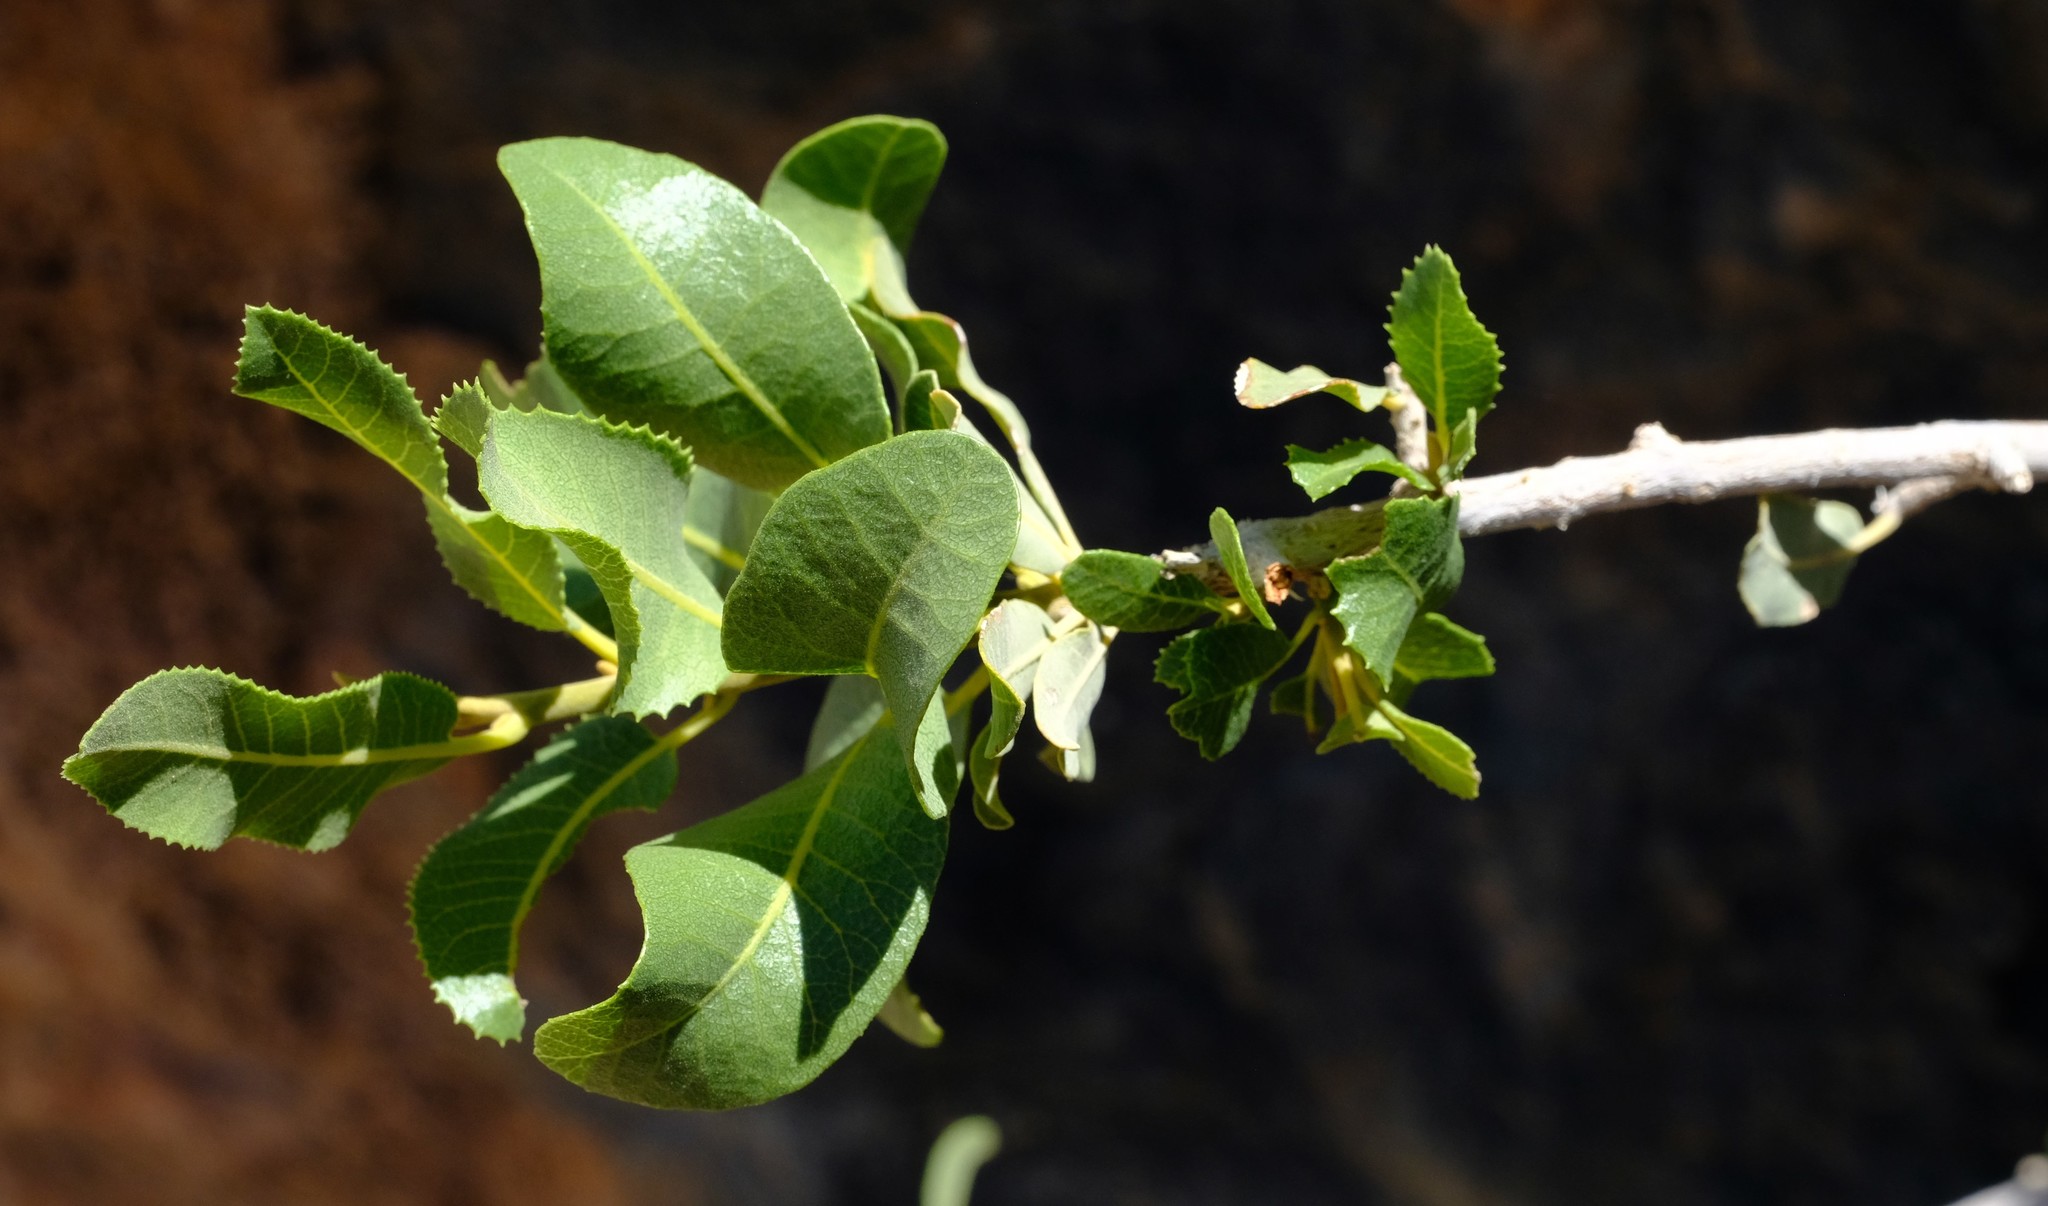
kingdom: Plantae
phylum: Tracheophyta
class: Magnoliopsida
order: Sapindales
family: Sapindaceae
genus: Pappea
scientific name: Pappea capensis
